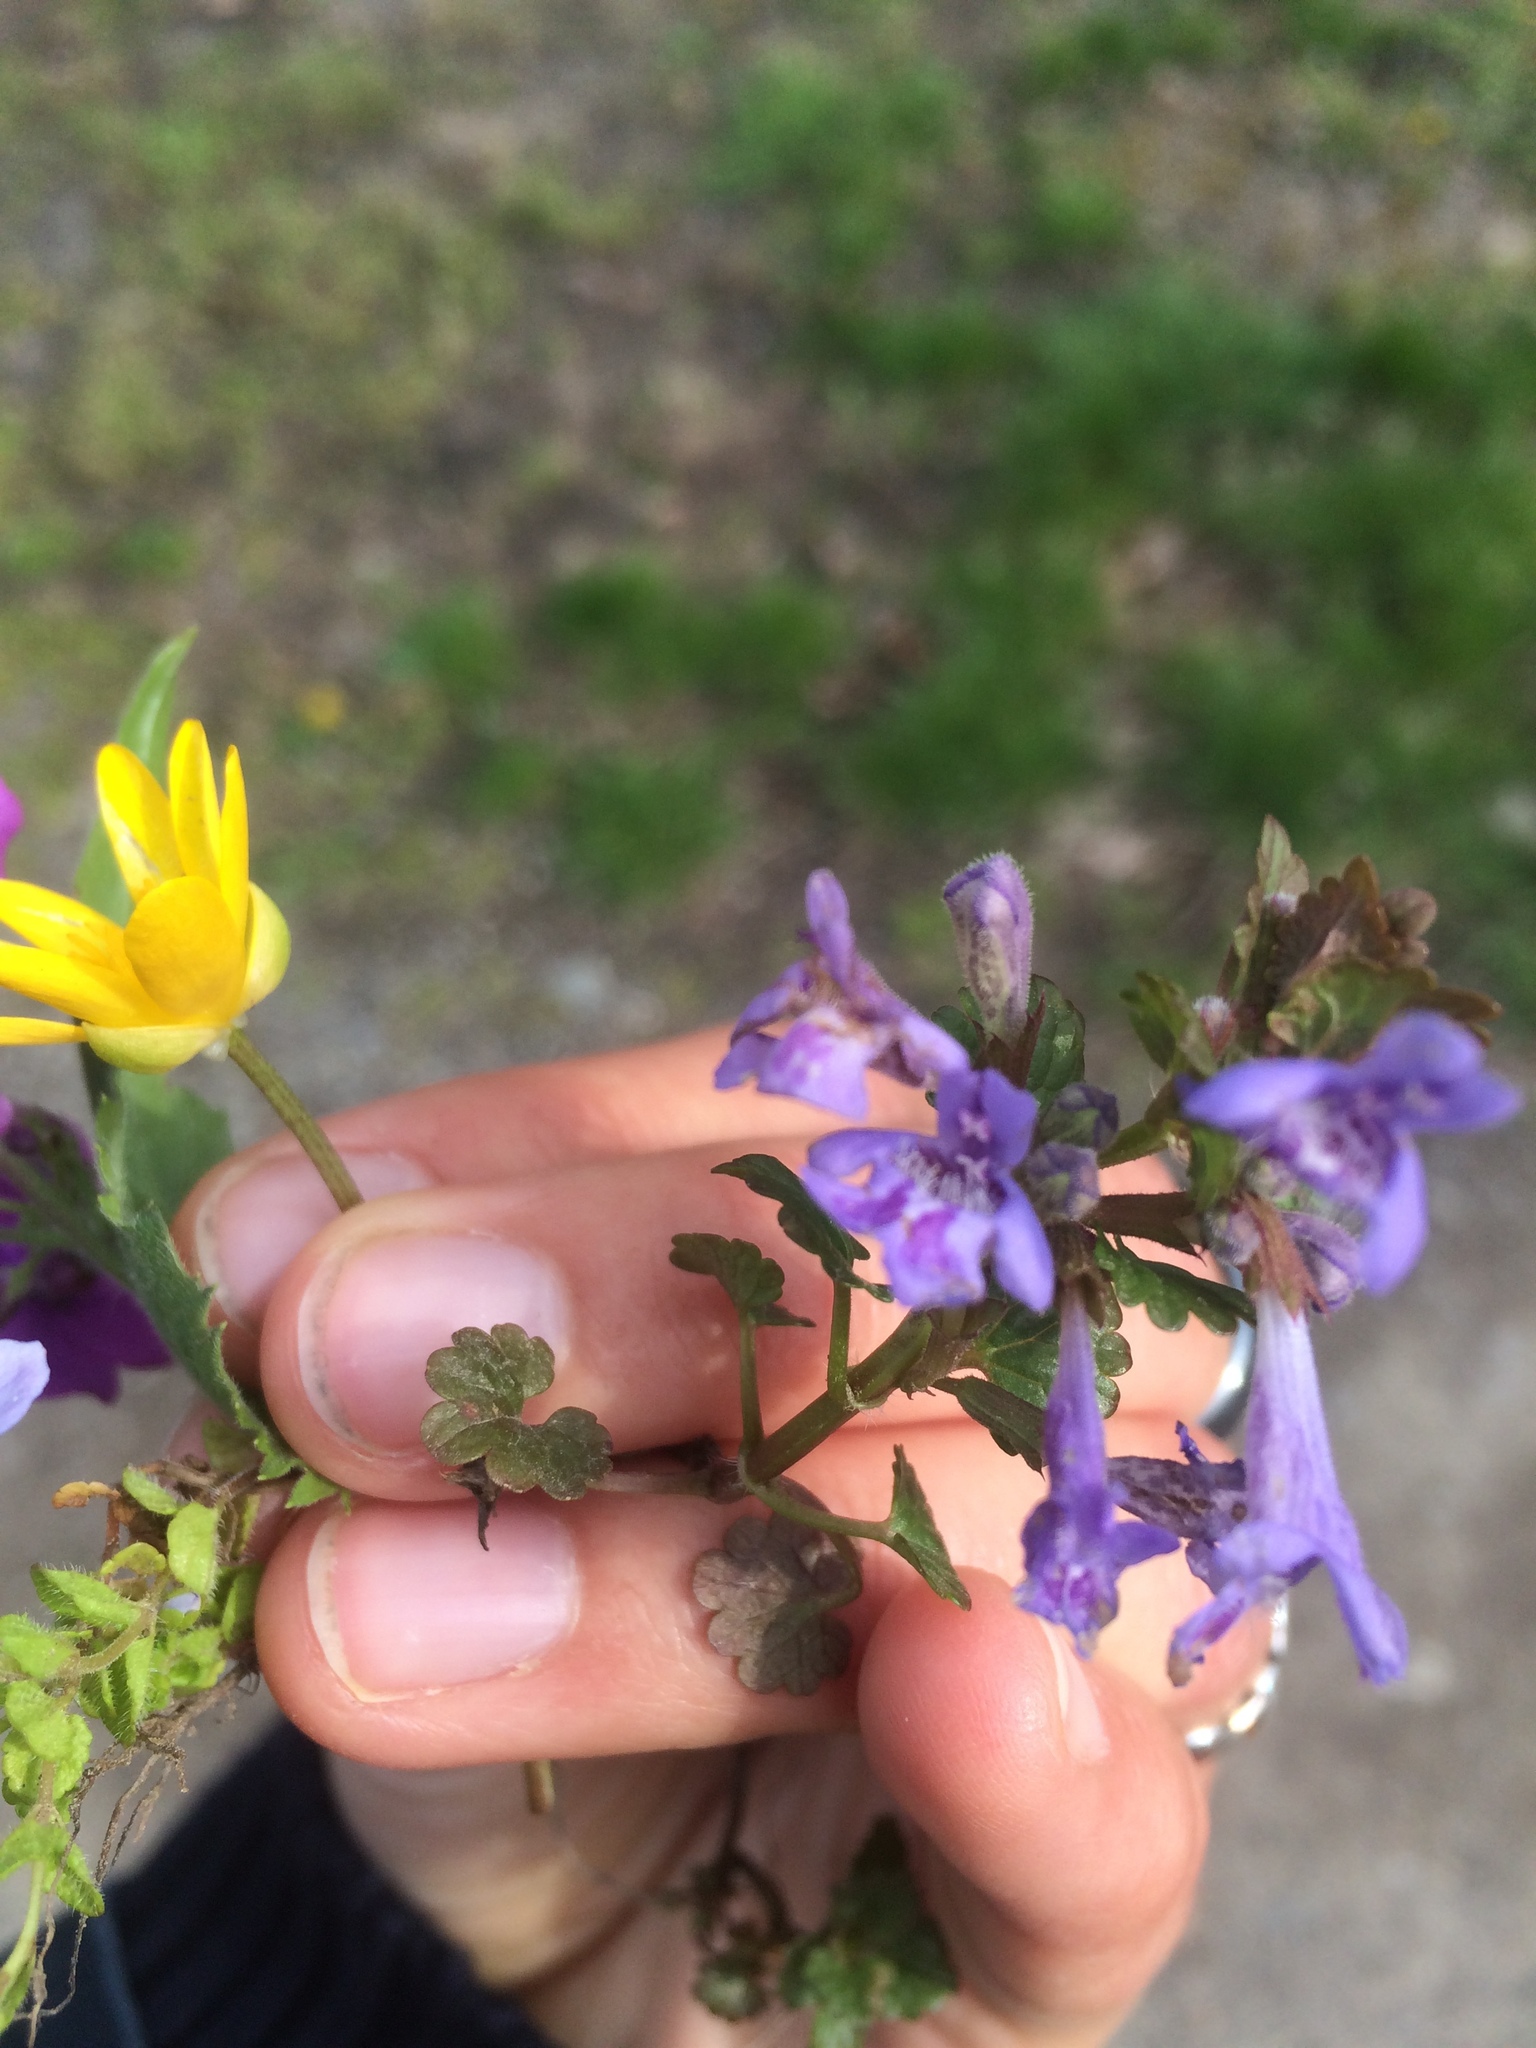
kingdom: Plantae
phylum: Tracheophyta
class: Magnoliopsida
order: Lamiales
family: Lamiaceae
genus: Glechoma
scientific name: Glechoma hederacea
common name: Ground ivy
